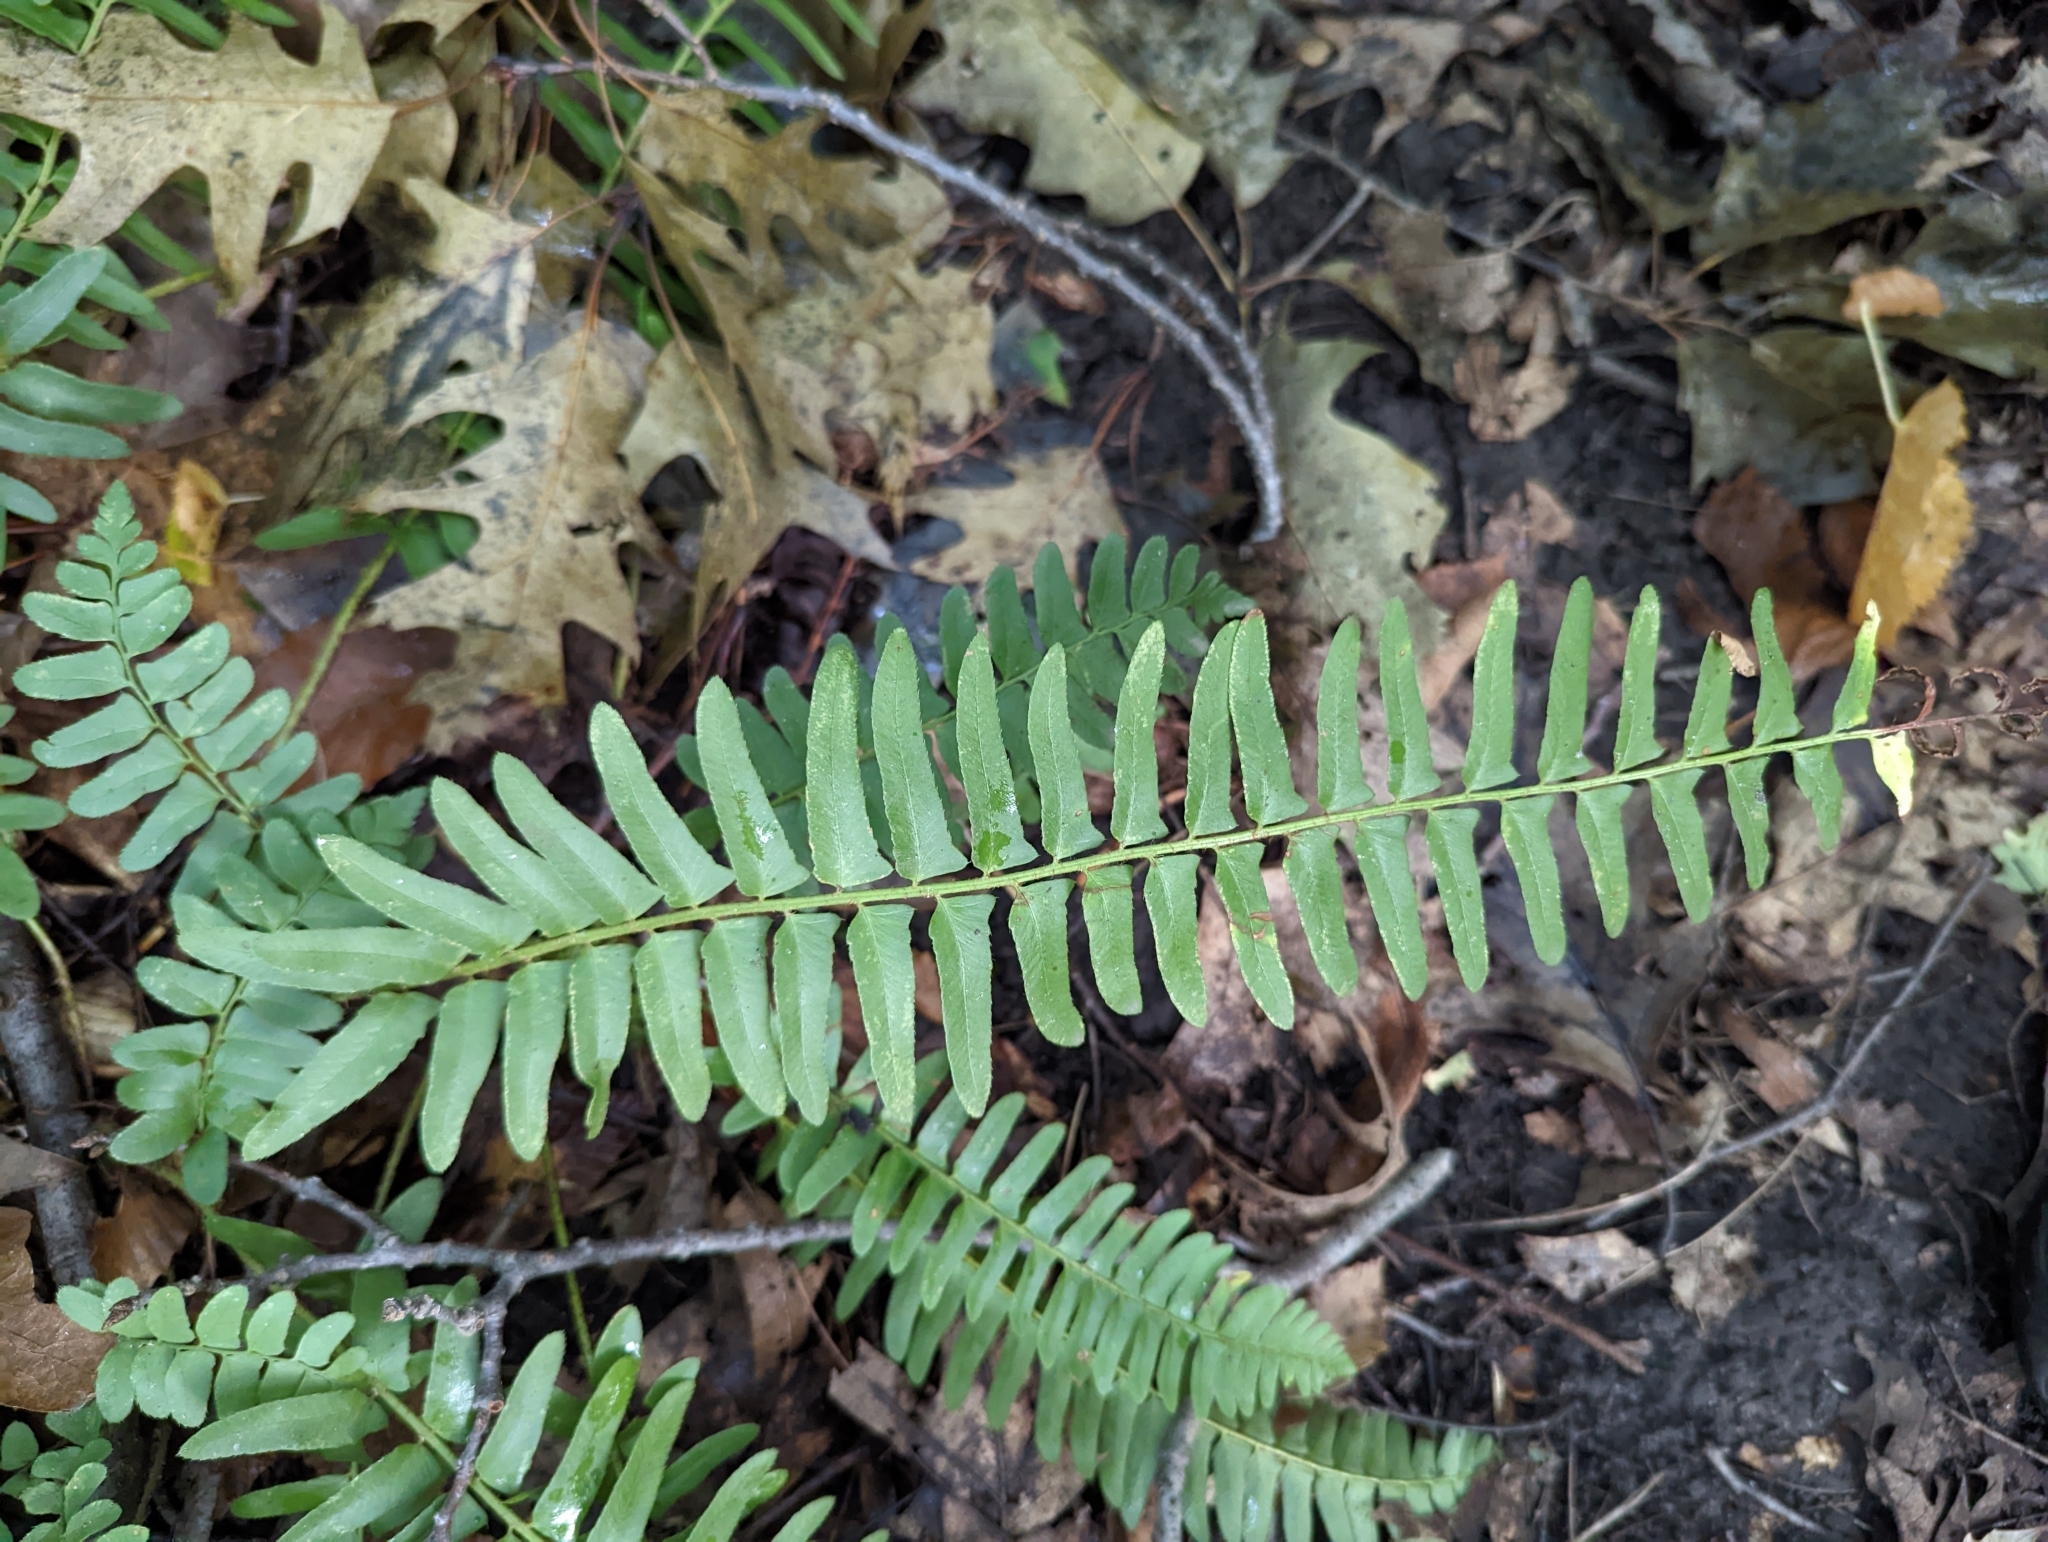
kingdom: Plantae
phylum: Tracheophyta
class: Polypodiopsida
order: Polypodiales
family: Dryopteridaceae
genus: Polystichum
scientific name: Polystichum acrostichoides
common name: Christmas fern
